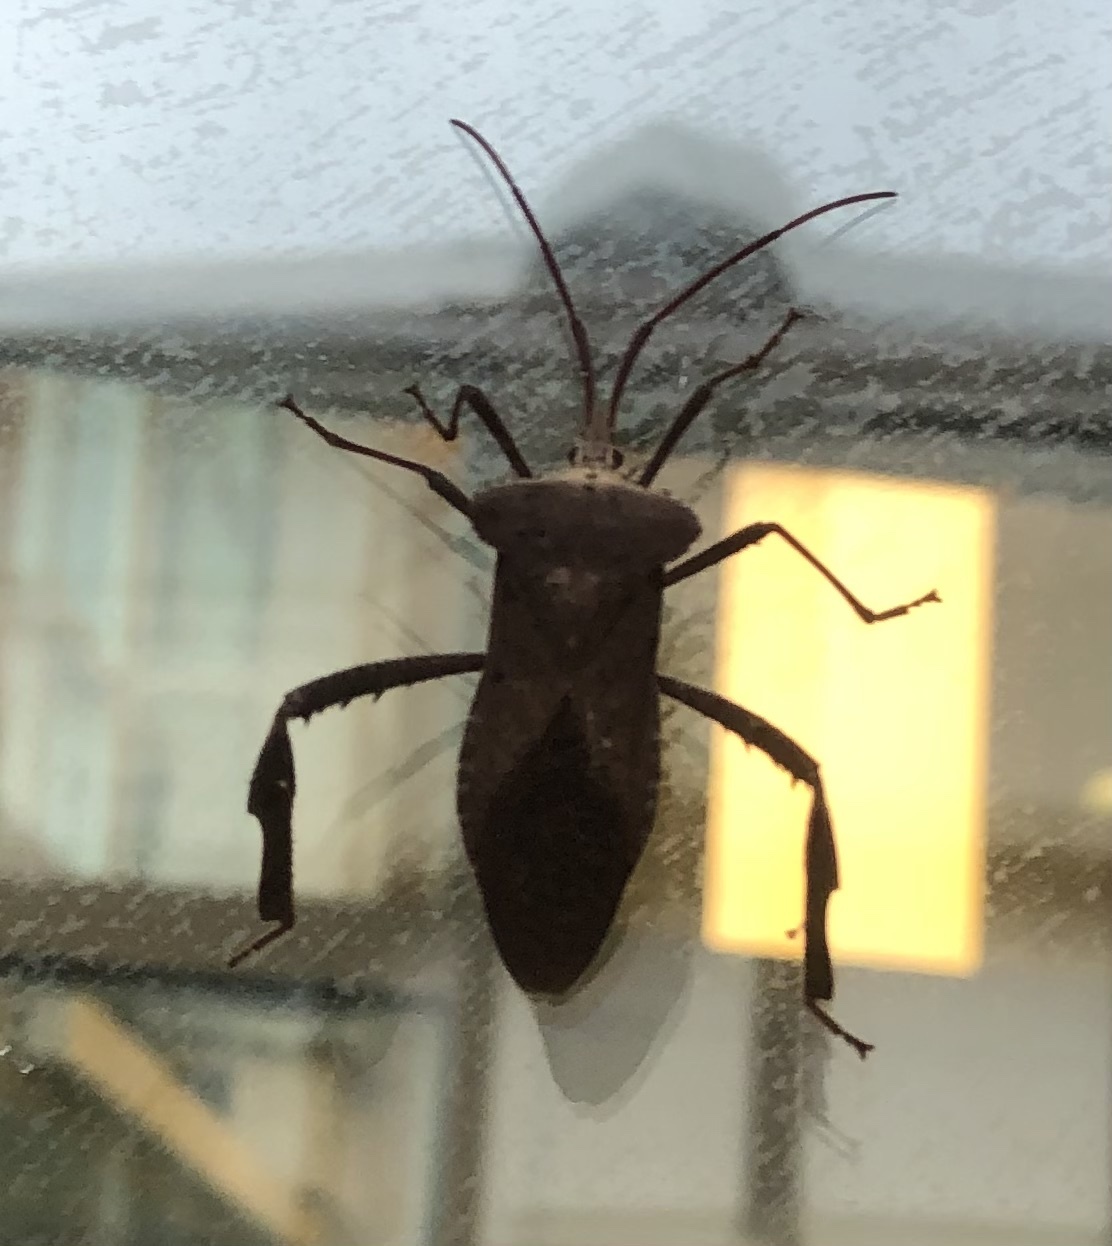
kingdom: Animalia
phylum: Arthropoda
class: Insecta
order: Hemiptera
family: Coreidae
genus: Acanthocephala
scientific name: Acanthocephala declivis
